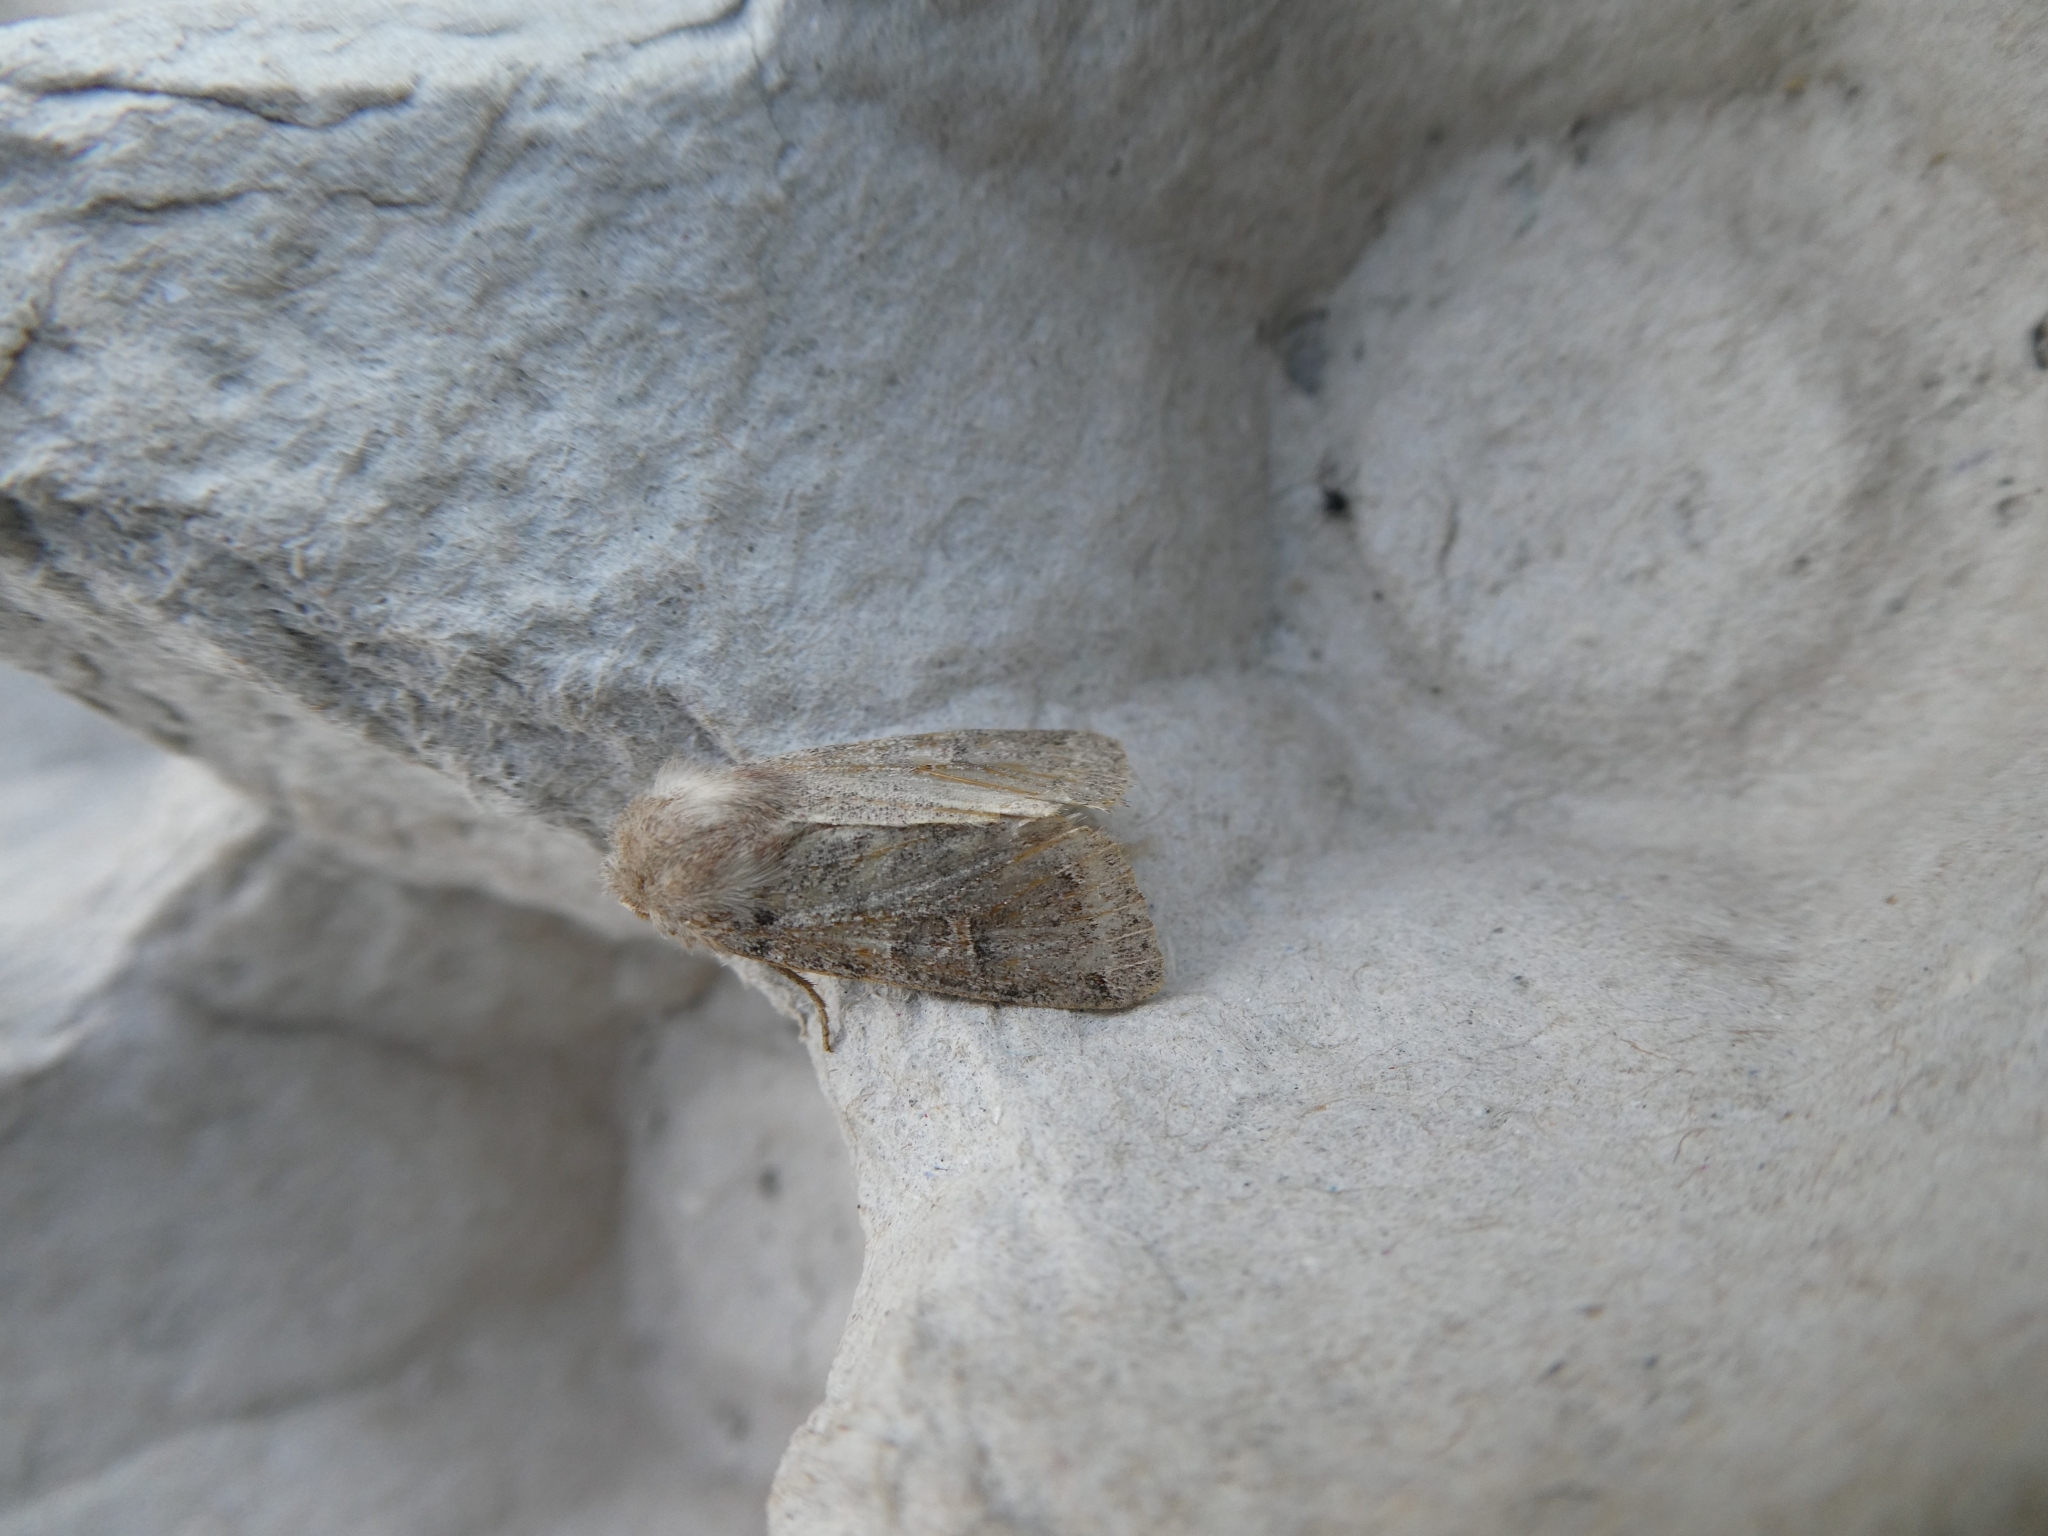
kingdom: Animalia
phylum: Arthropoda
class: Insecta
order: Lepidoptera
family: Noctuidae
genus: Orthosia
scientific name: Orthosia cerasi
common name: Common quaker
